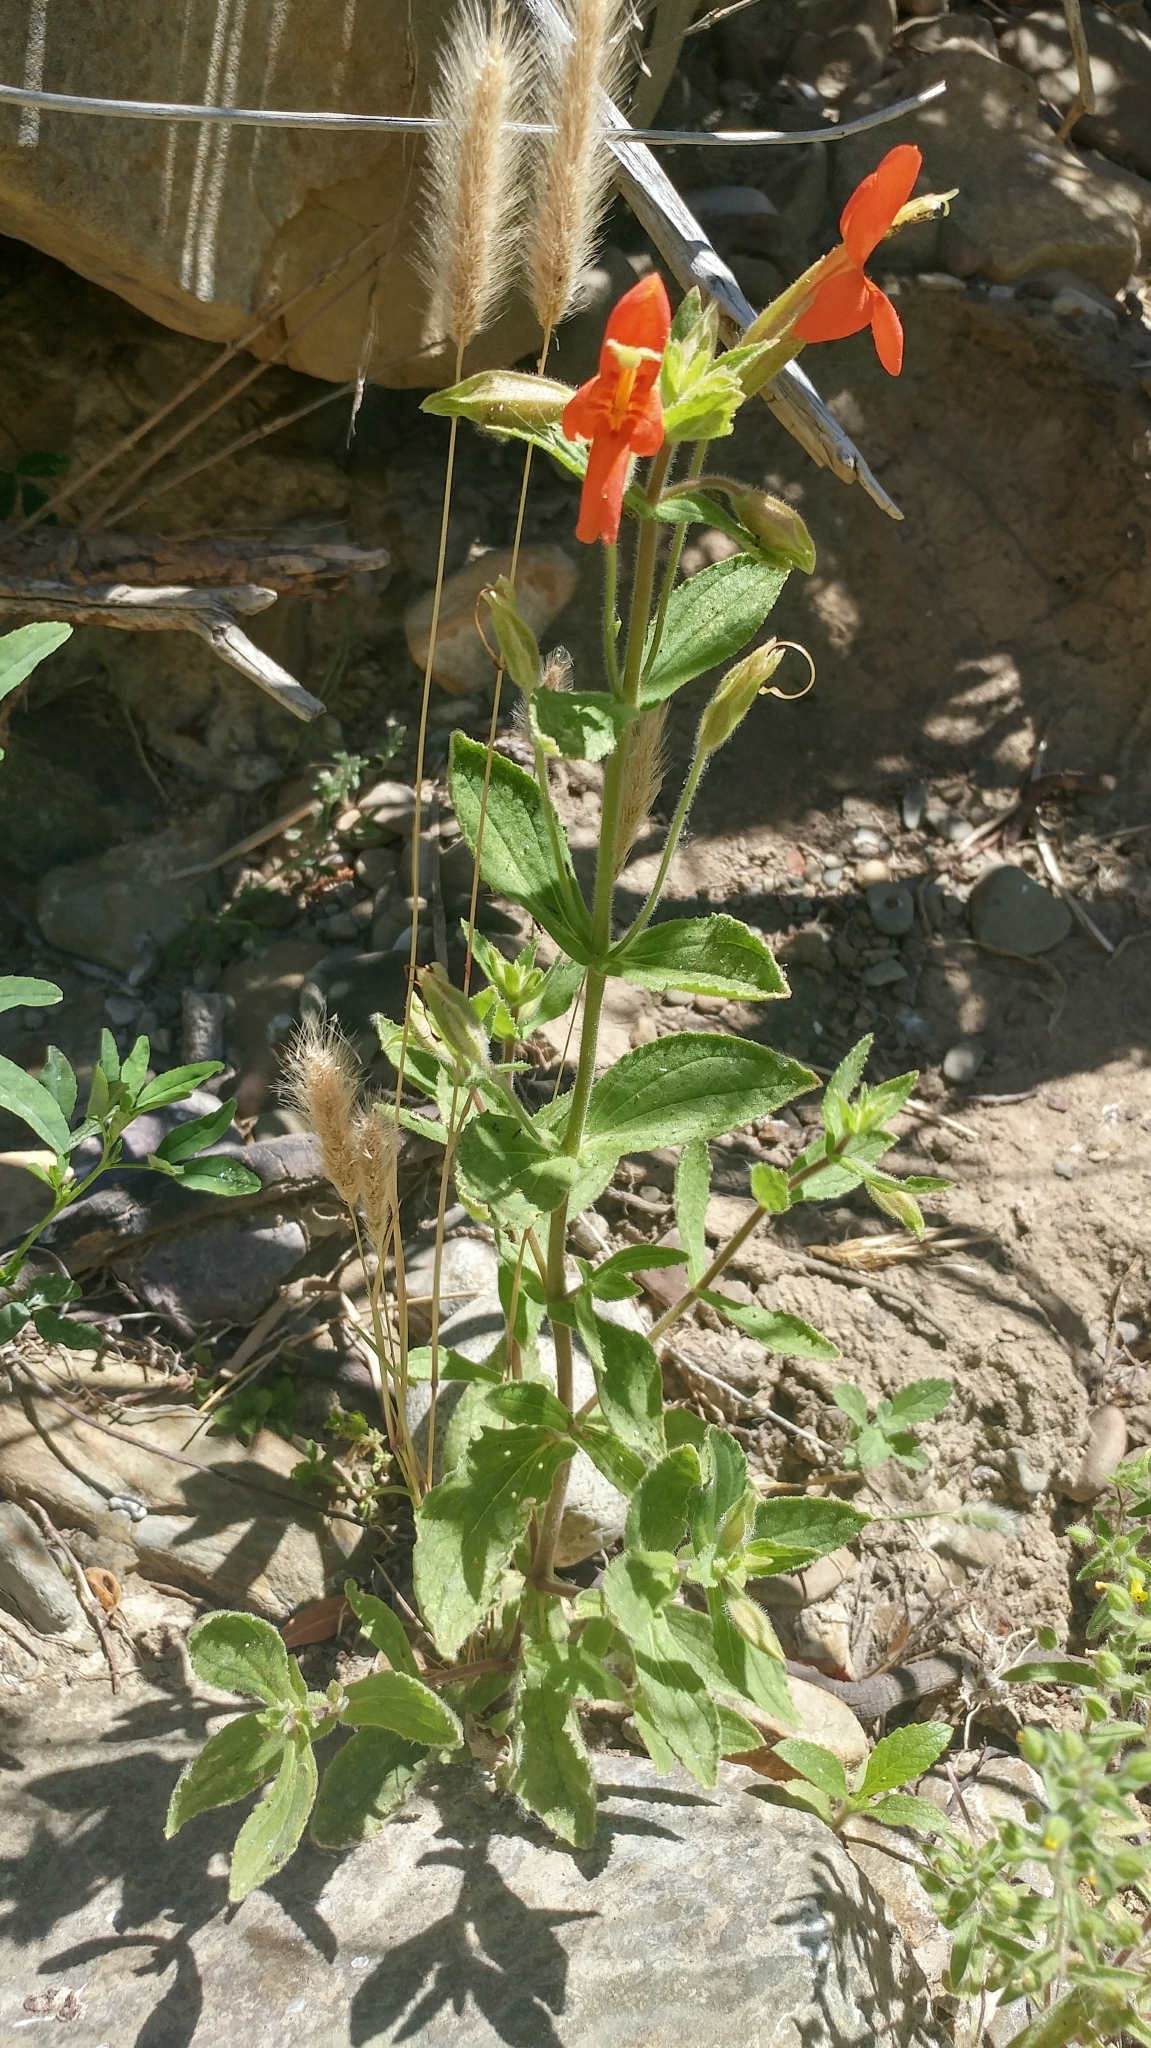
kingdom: Plantae
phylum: Tracheophyta
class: Magnoliopsida
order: Lamiales
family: Phrymaceae
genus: Erythranthe
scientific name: Erythranthe cardinalis
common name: Scarlet monkey-flower
